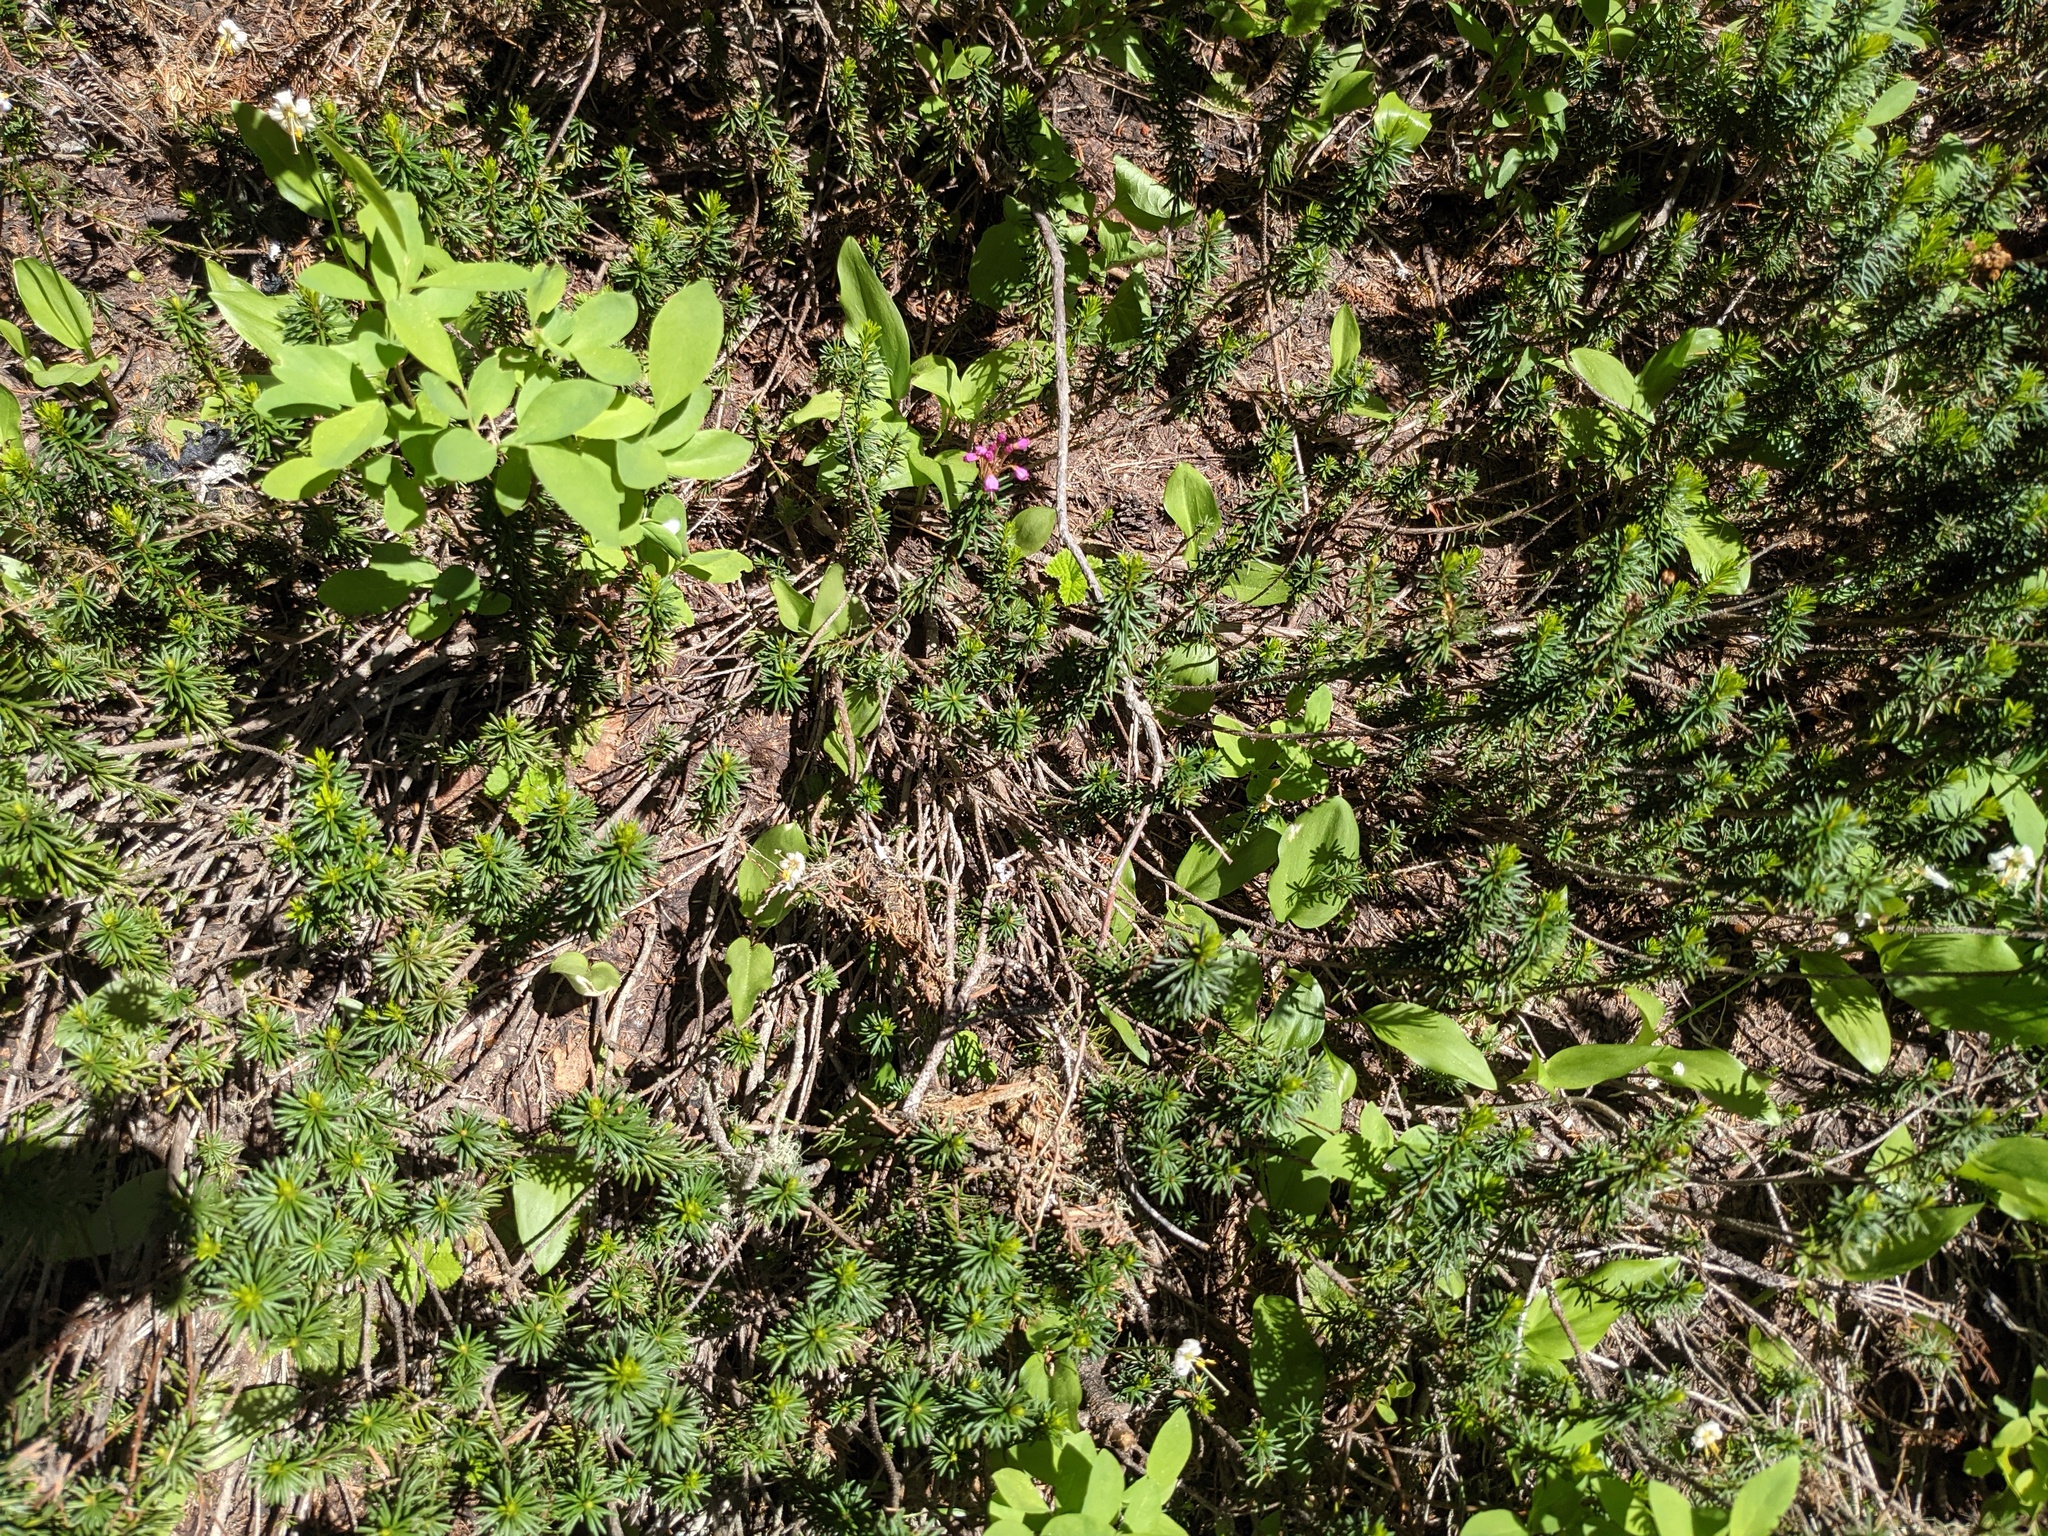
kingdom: Plantae
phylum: Tracheophyta
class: Magnoliopsida
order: Ericales
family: Ericaceae
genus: Phyllodoce
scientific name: Phyllodoce empetriformis
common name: Pink mountain heather
